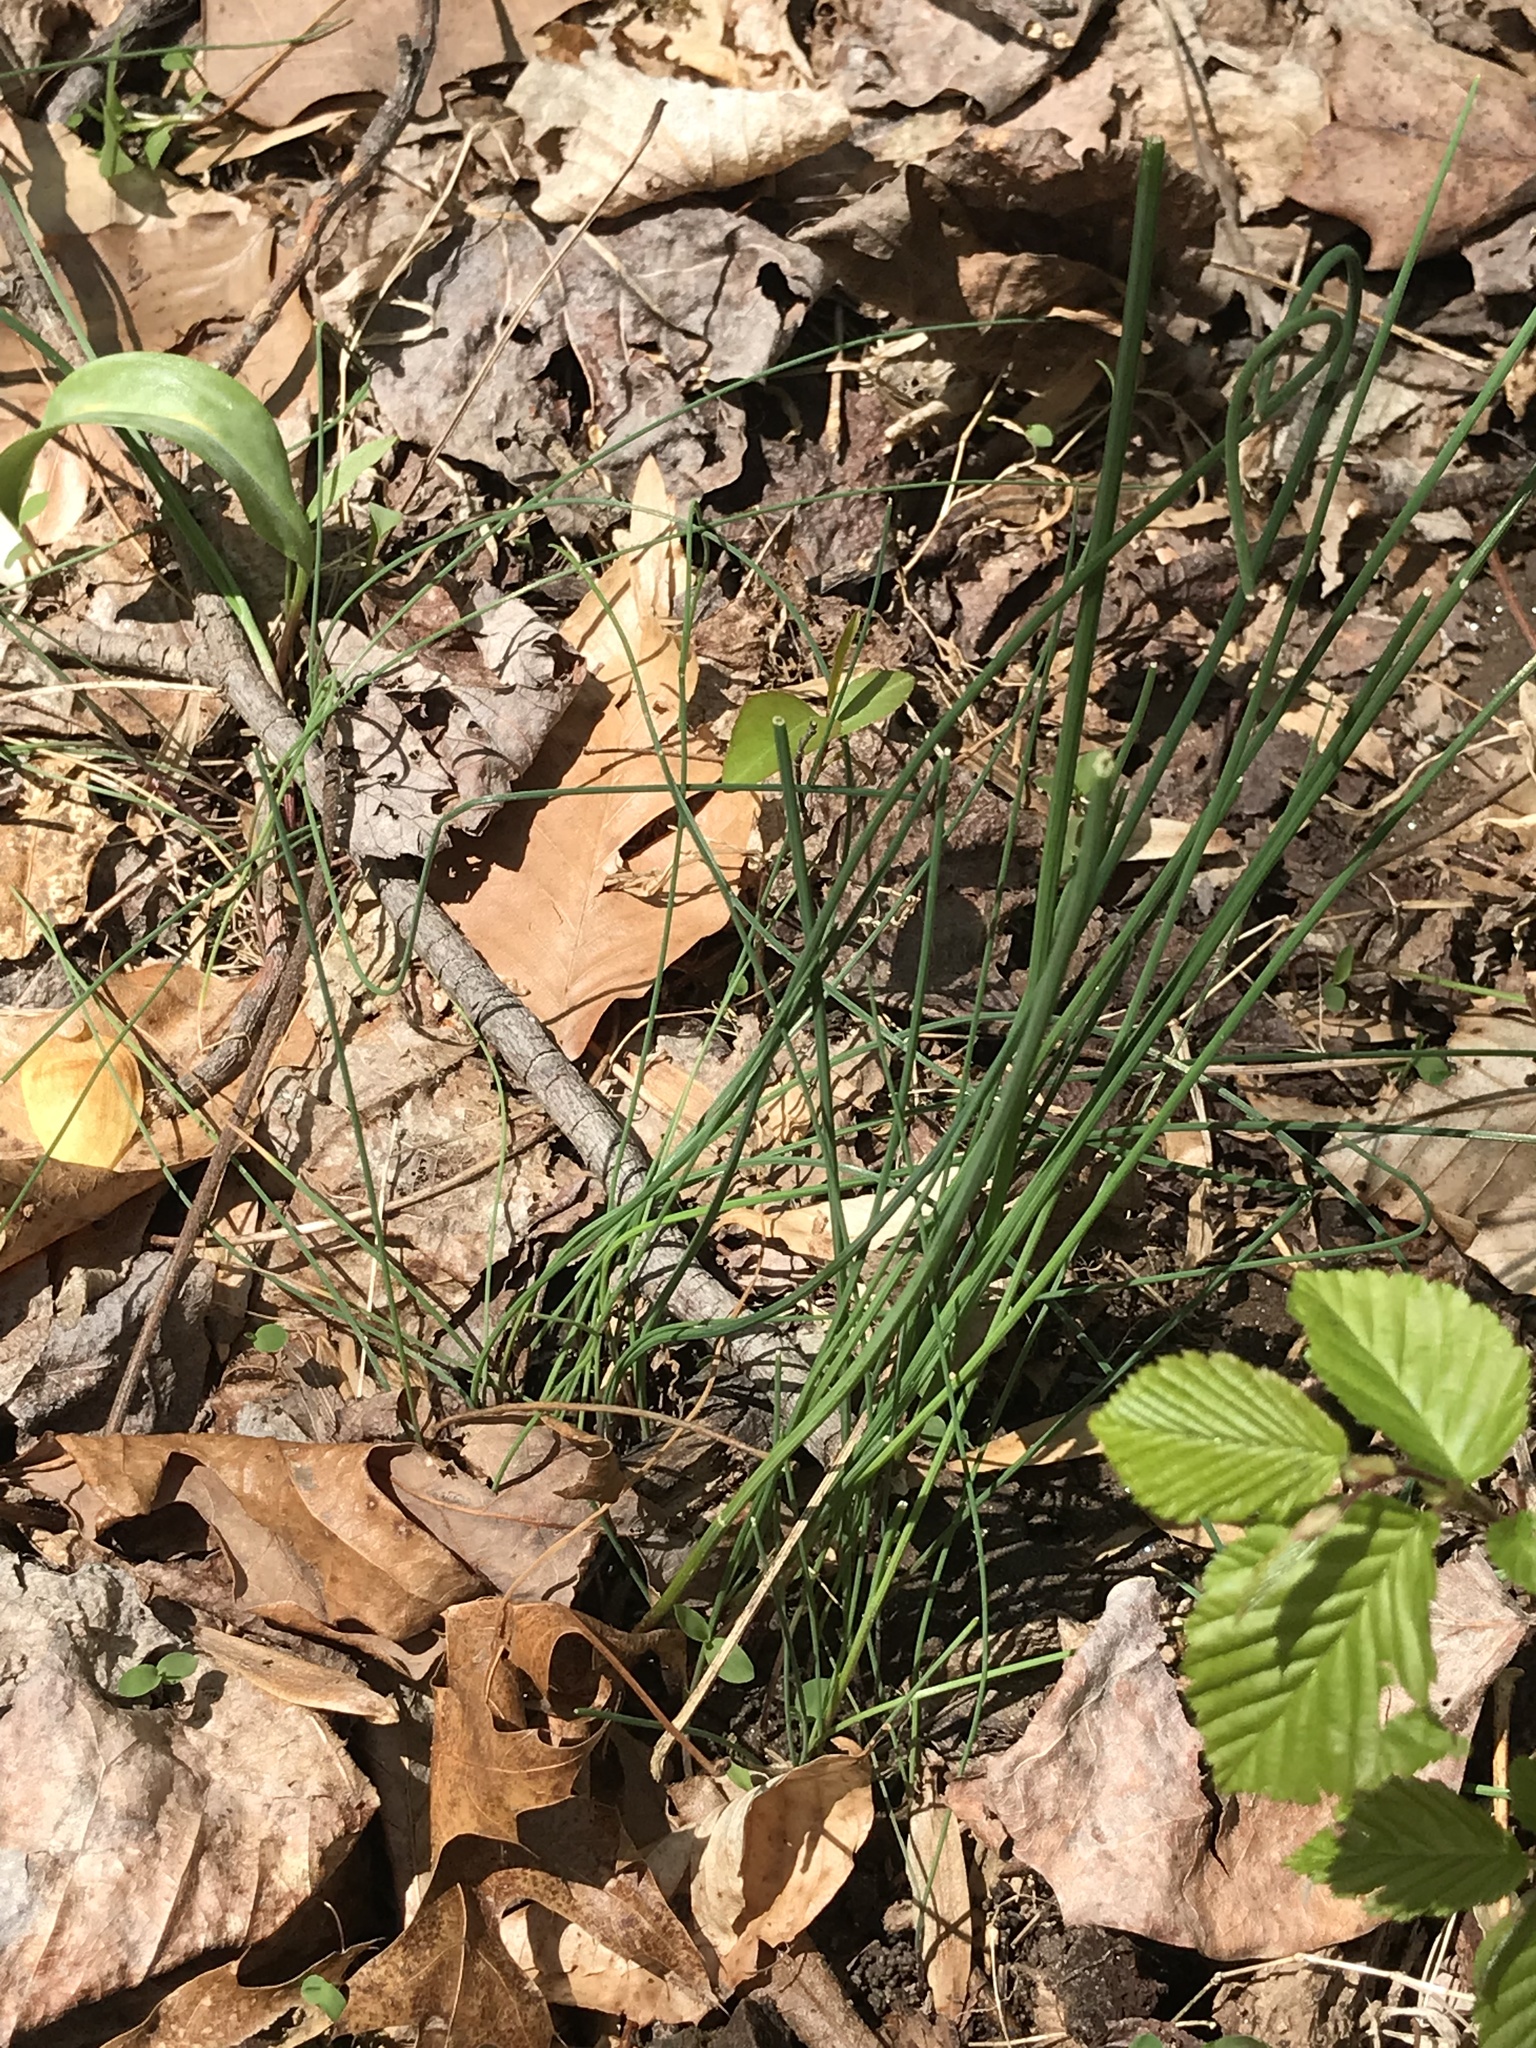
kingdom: Plantae
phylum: Tracheophyta
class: Liliopsida
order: Asparagales
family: Amaryllidaceae
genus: Allium
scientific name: Allium vineale
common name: Crow garlic
